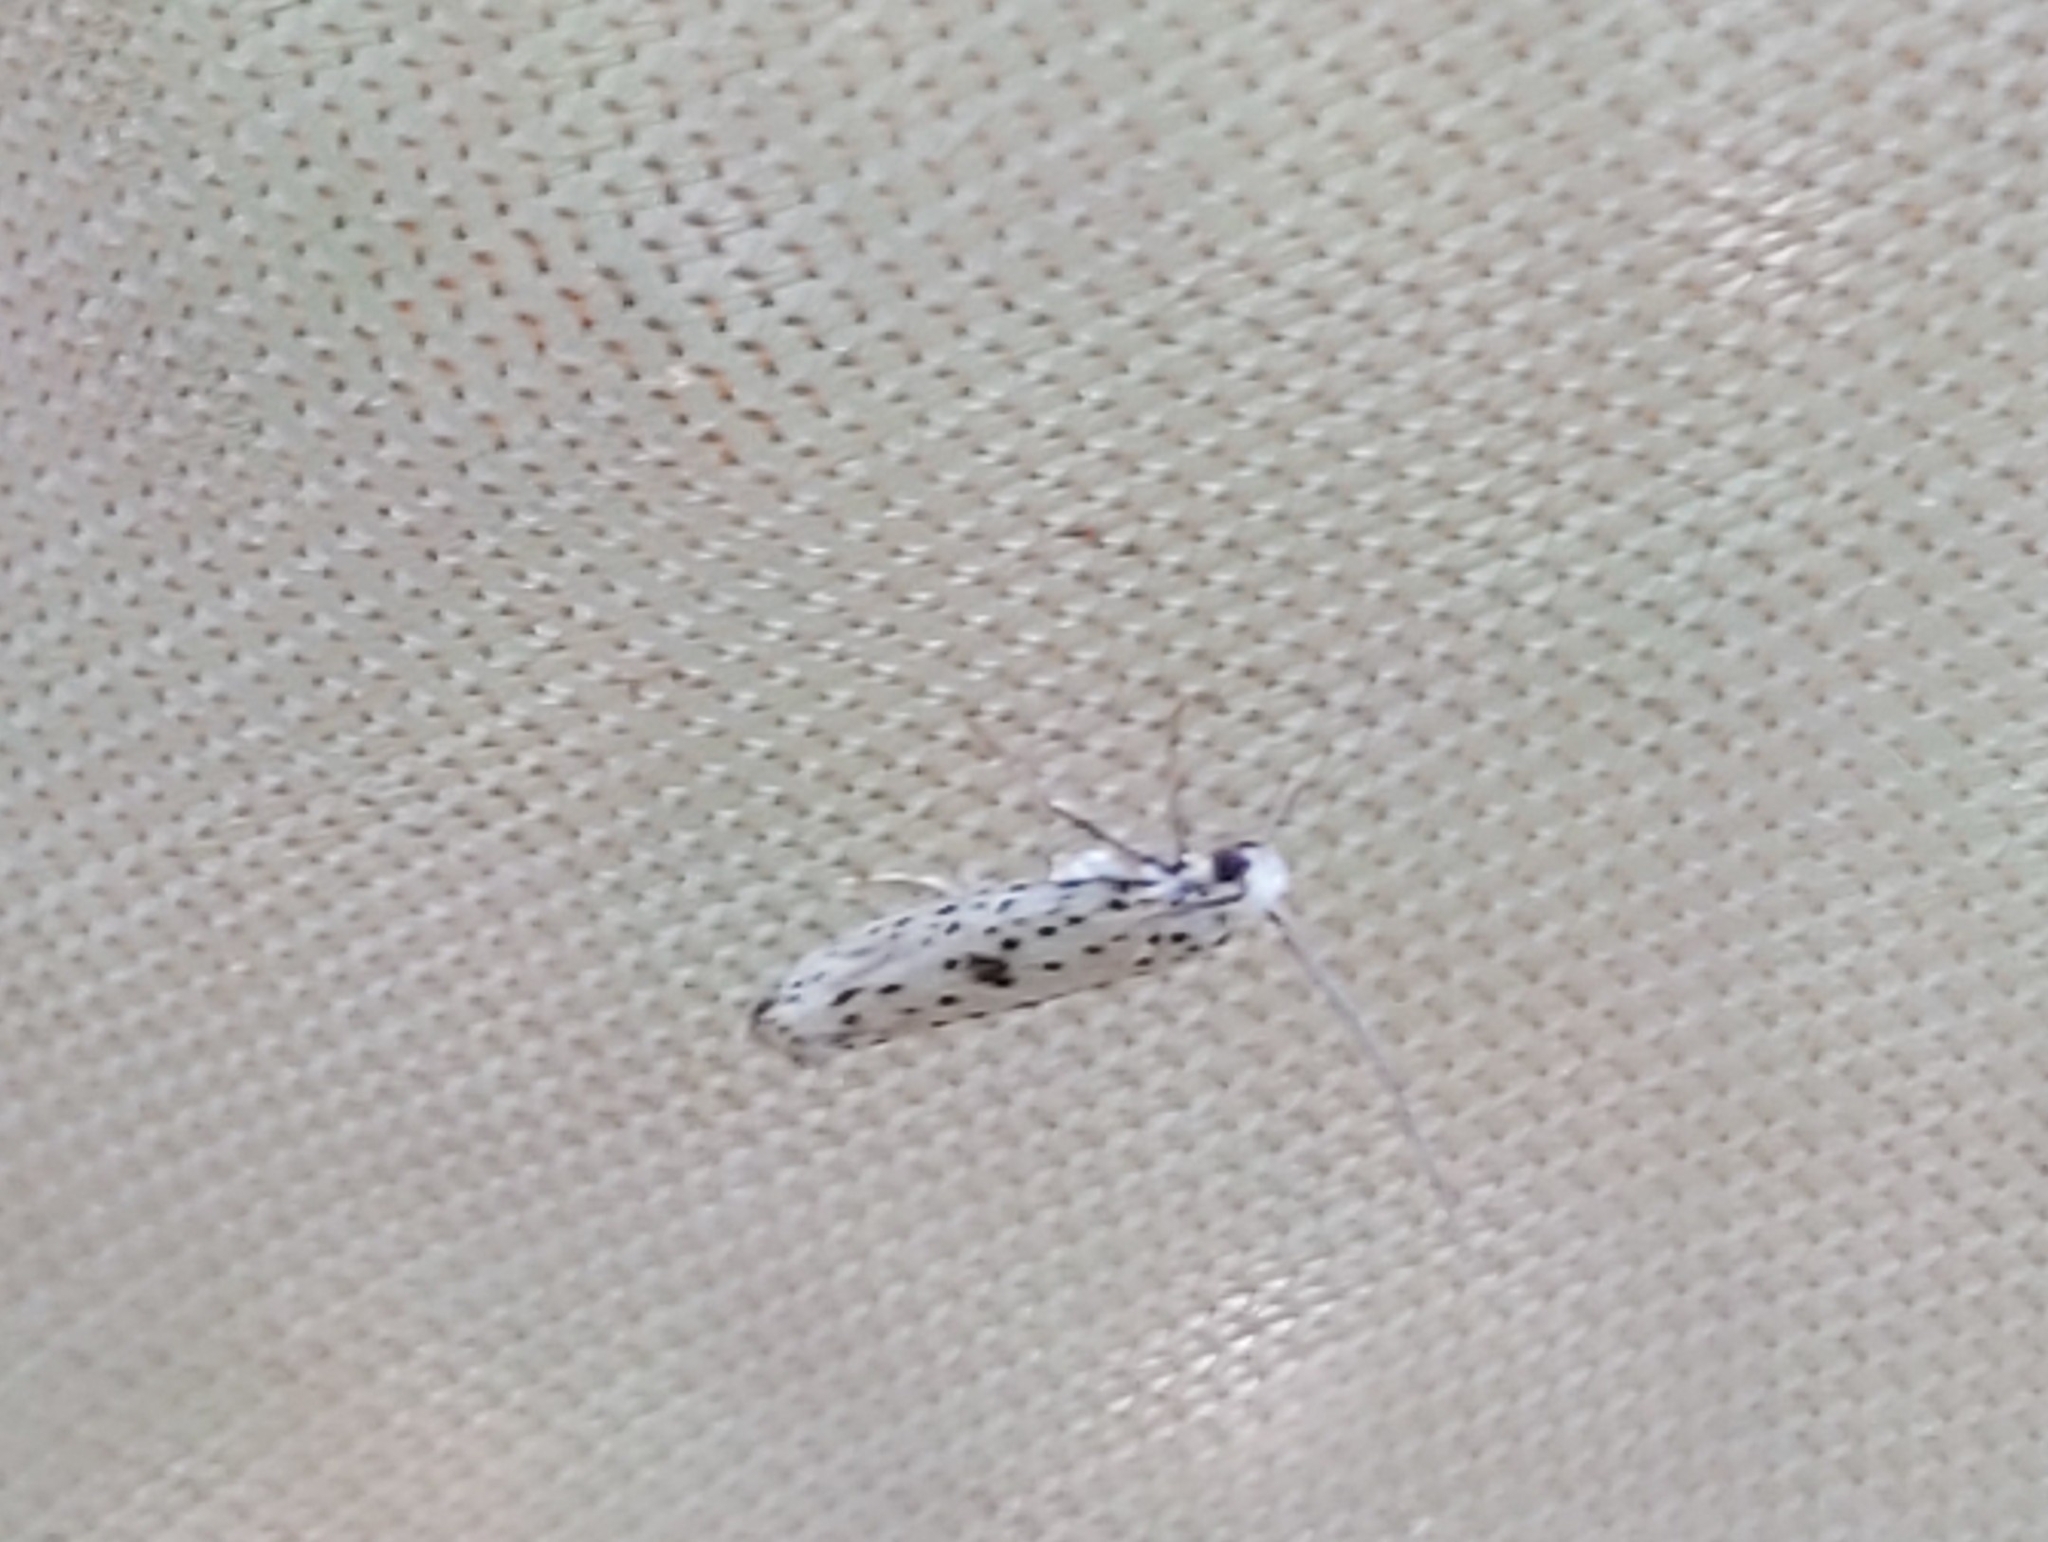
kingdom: Animalia
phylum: Arthropoda
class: Insecta
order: Lepidoptera
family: Yponomeutidae
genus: Yponomeuta
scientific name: Yponomeuta plumbella
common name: Black-tipped ermine
